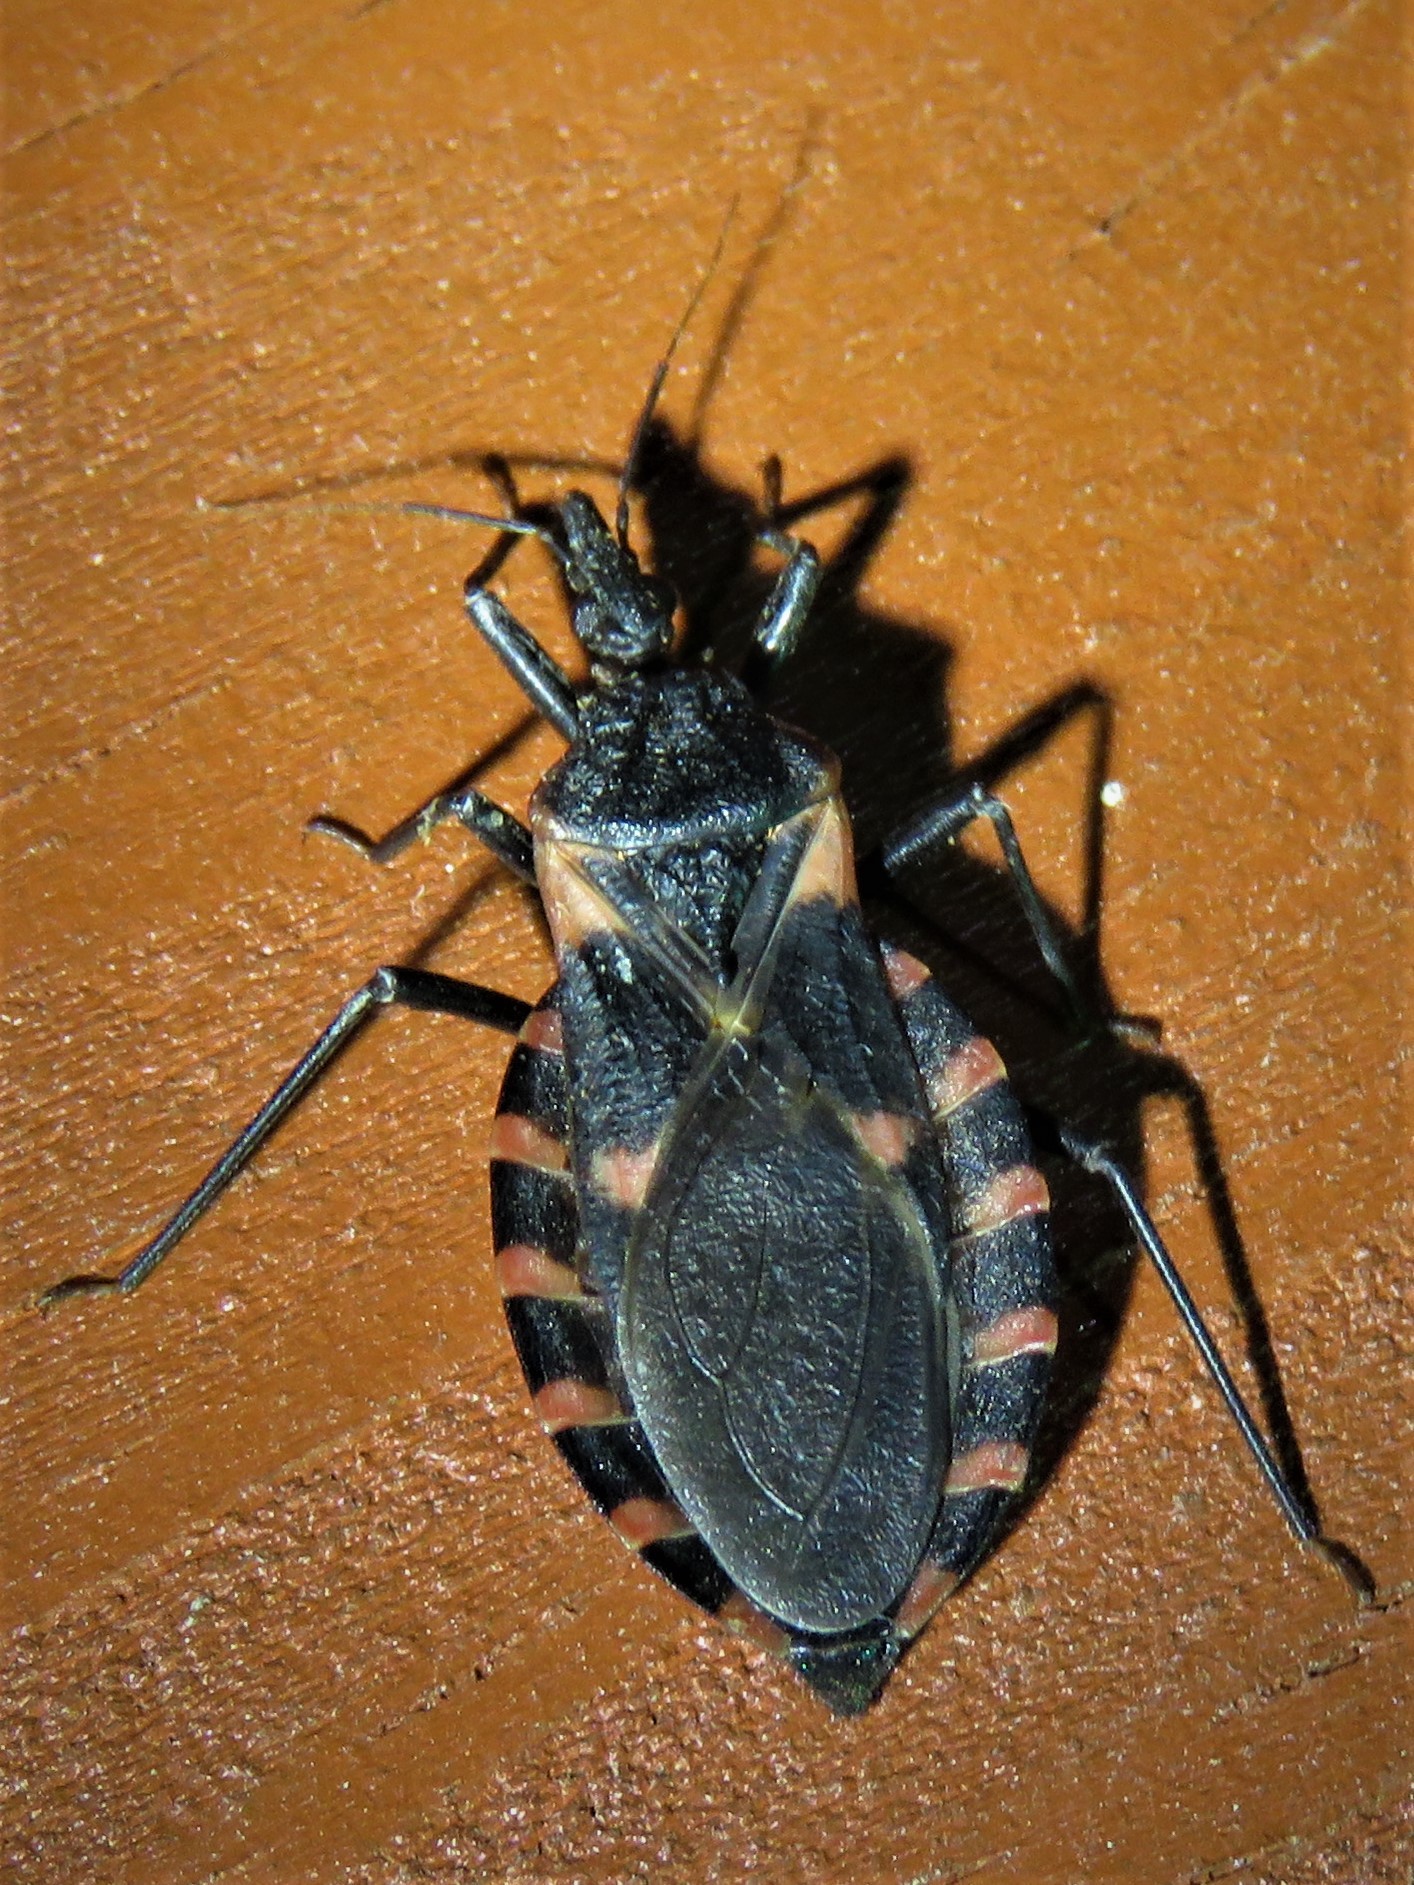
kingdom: Animalia
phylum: Arthropoda
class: Insecta
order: Hemiptera
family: Reduviidae
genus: Triatoma
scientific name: Triatoma sanguisuga
